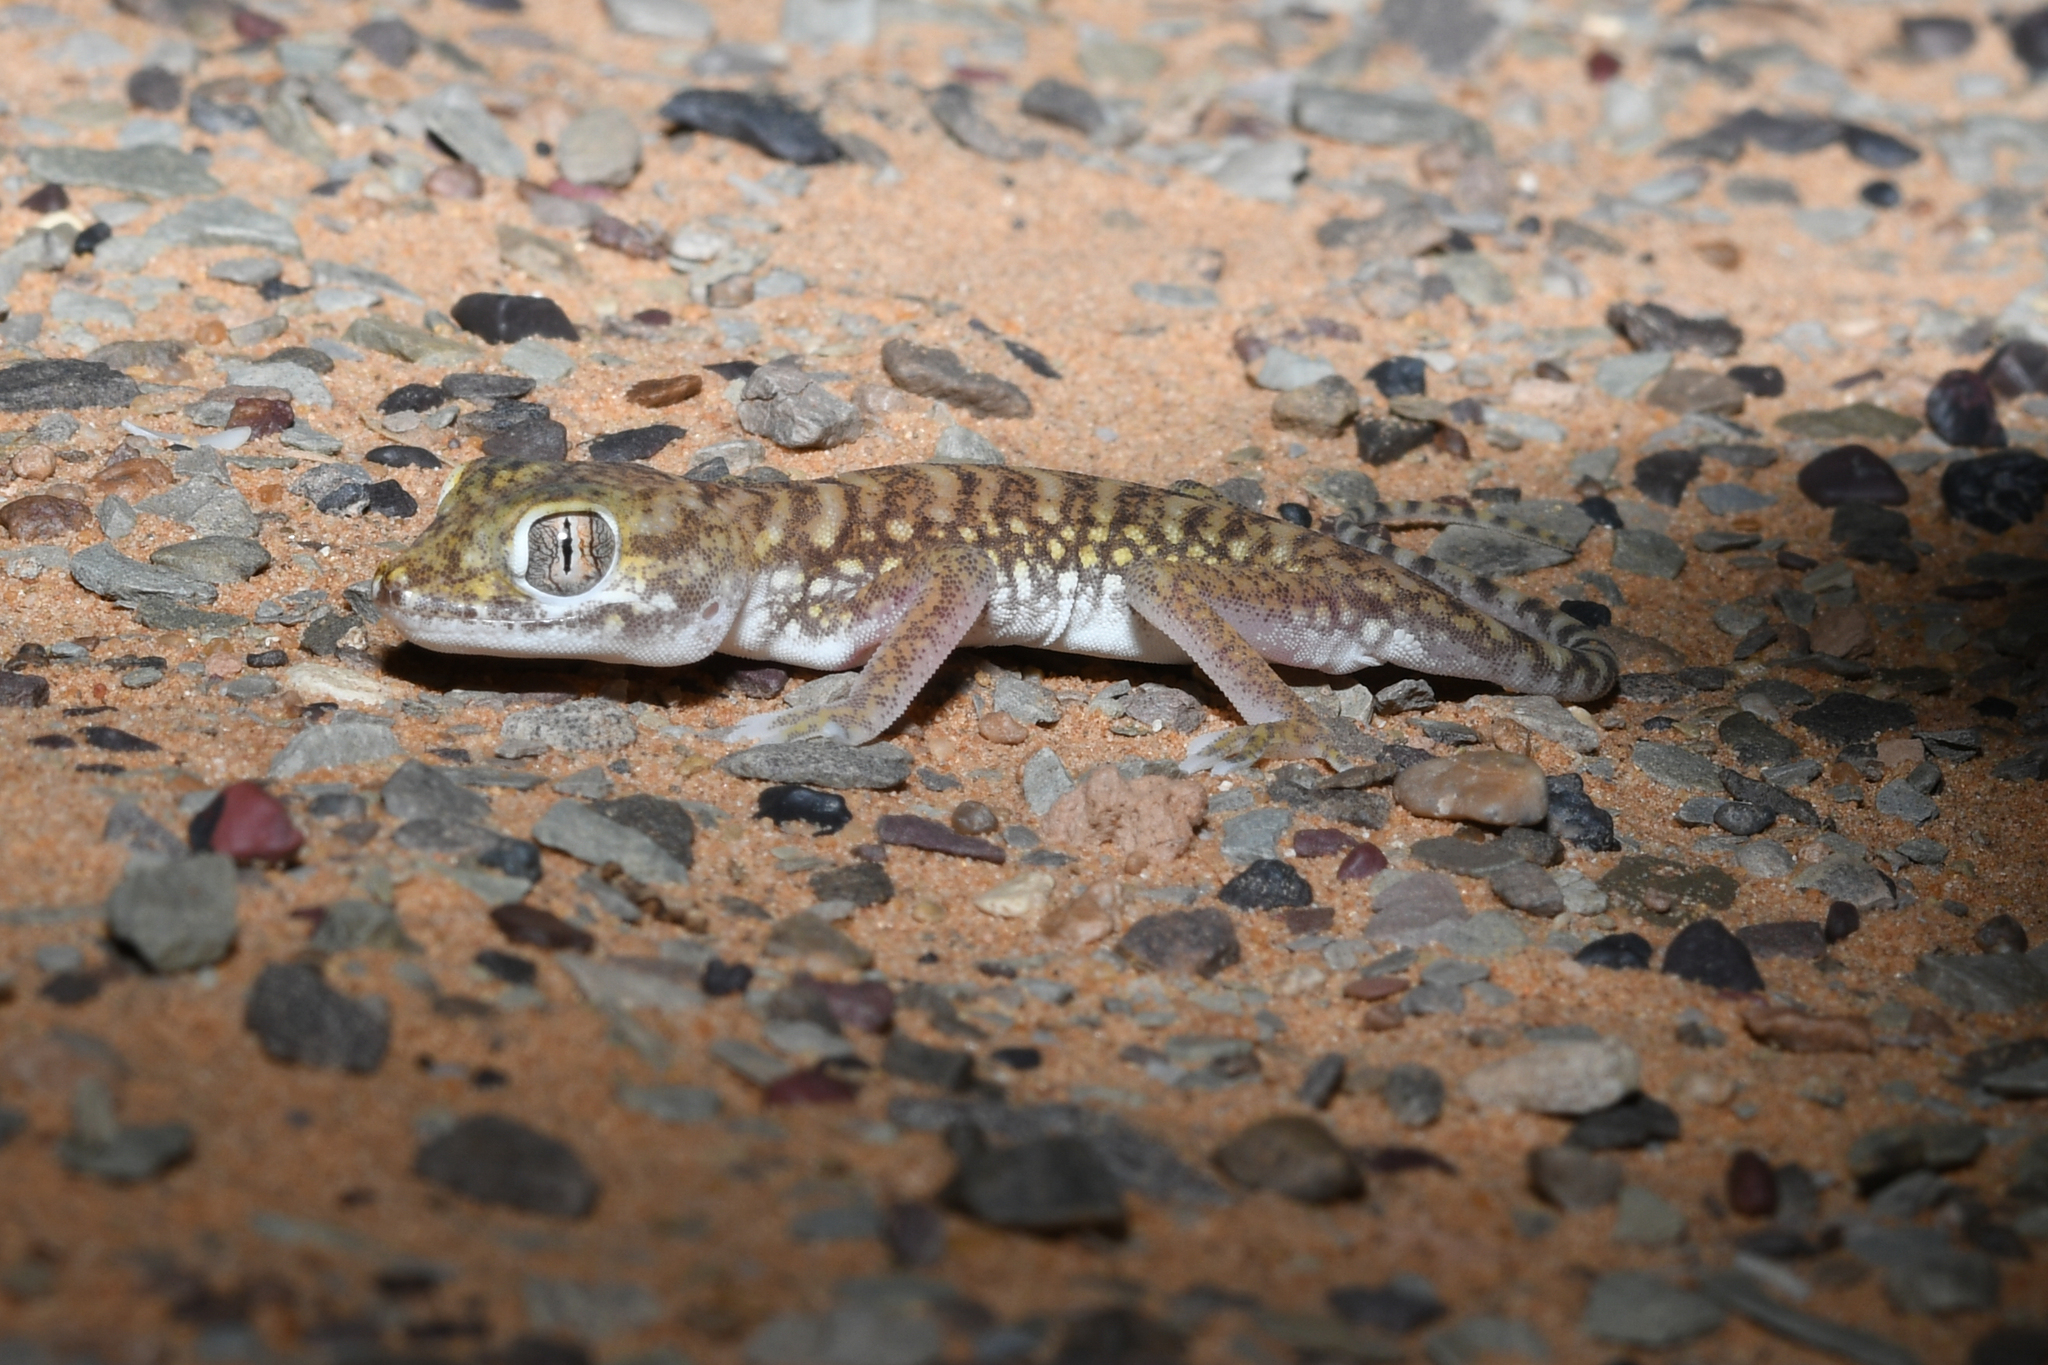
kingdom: Animalia
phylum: Chordata
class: Squamata
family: Gekkonidae
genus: Stenodactylus
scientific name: Stenodactylus petrii
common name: Anderson's short-fingered gecko
